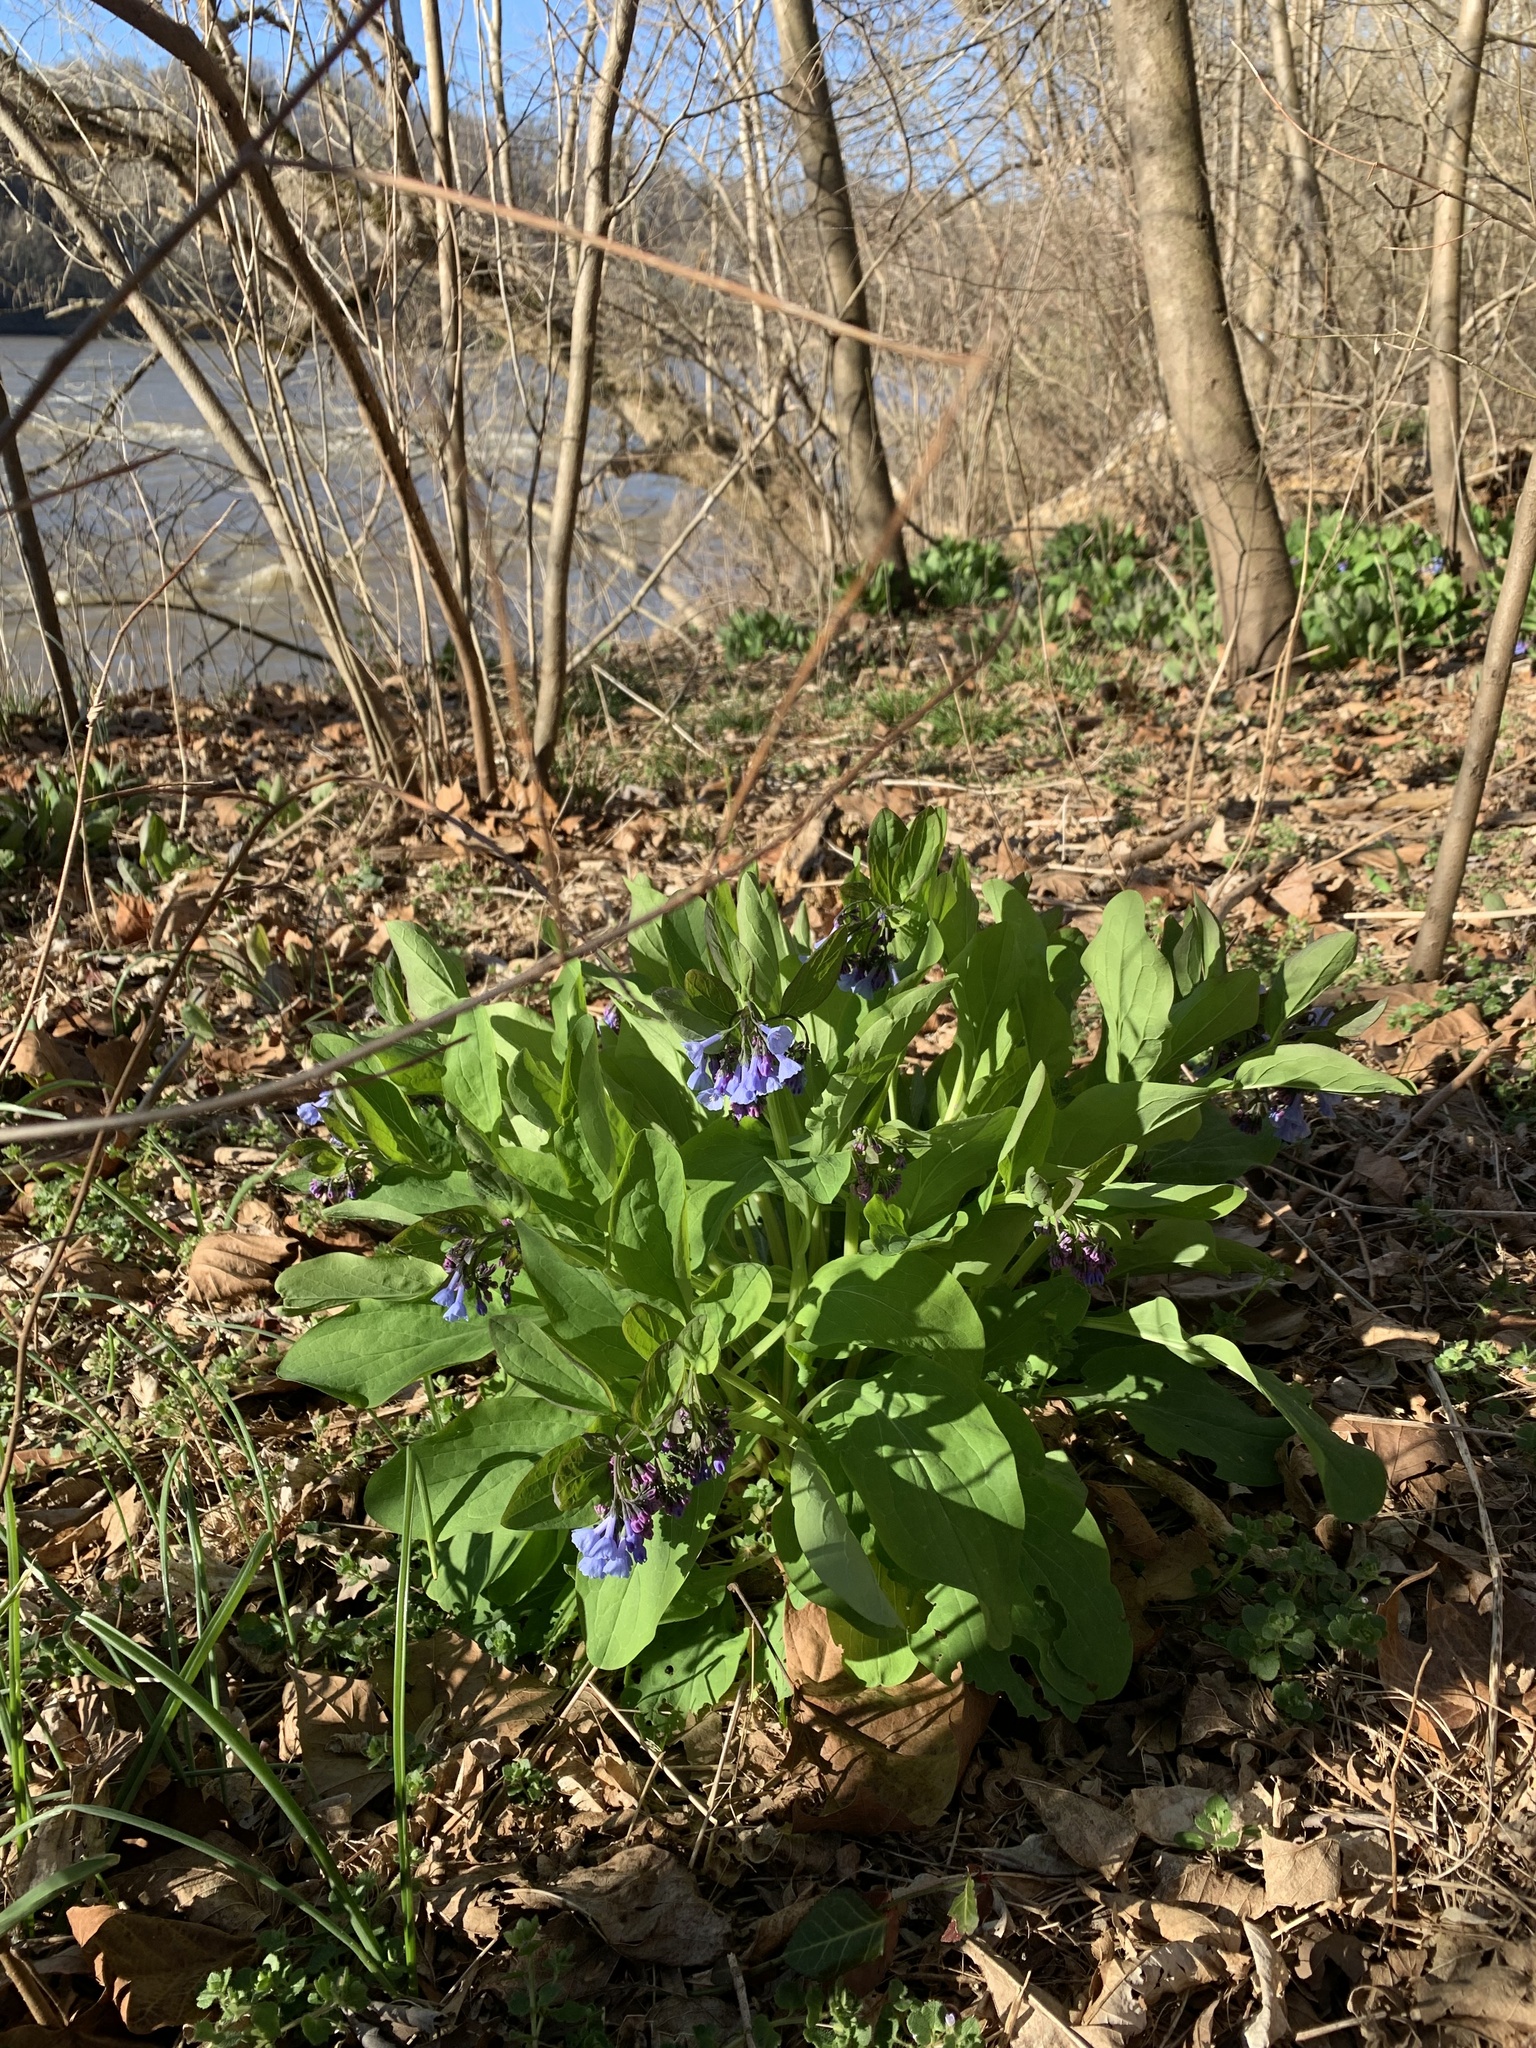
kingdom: Plantae
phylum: Tracheophyta
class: Magnoliopsida
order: Boraginales
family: Boraginaceae
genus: Mertensia
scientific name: Mertensia virginica
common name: Virginia bluebells
